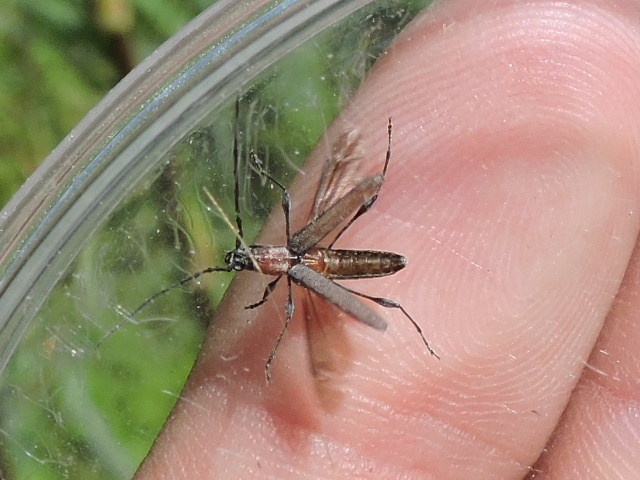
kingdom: Animalia
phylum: Arthropoda
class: Insecta
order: Coleoptera
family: Cerambycidae
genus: Rhopalophora
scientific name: Rhopalophora longipes
